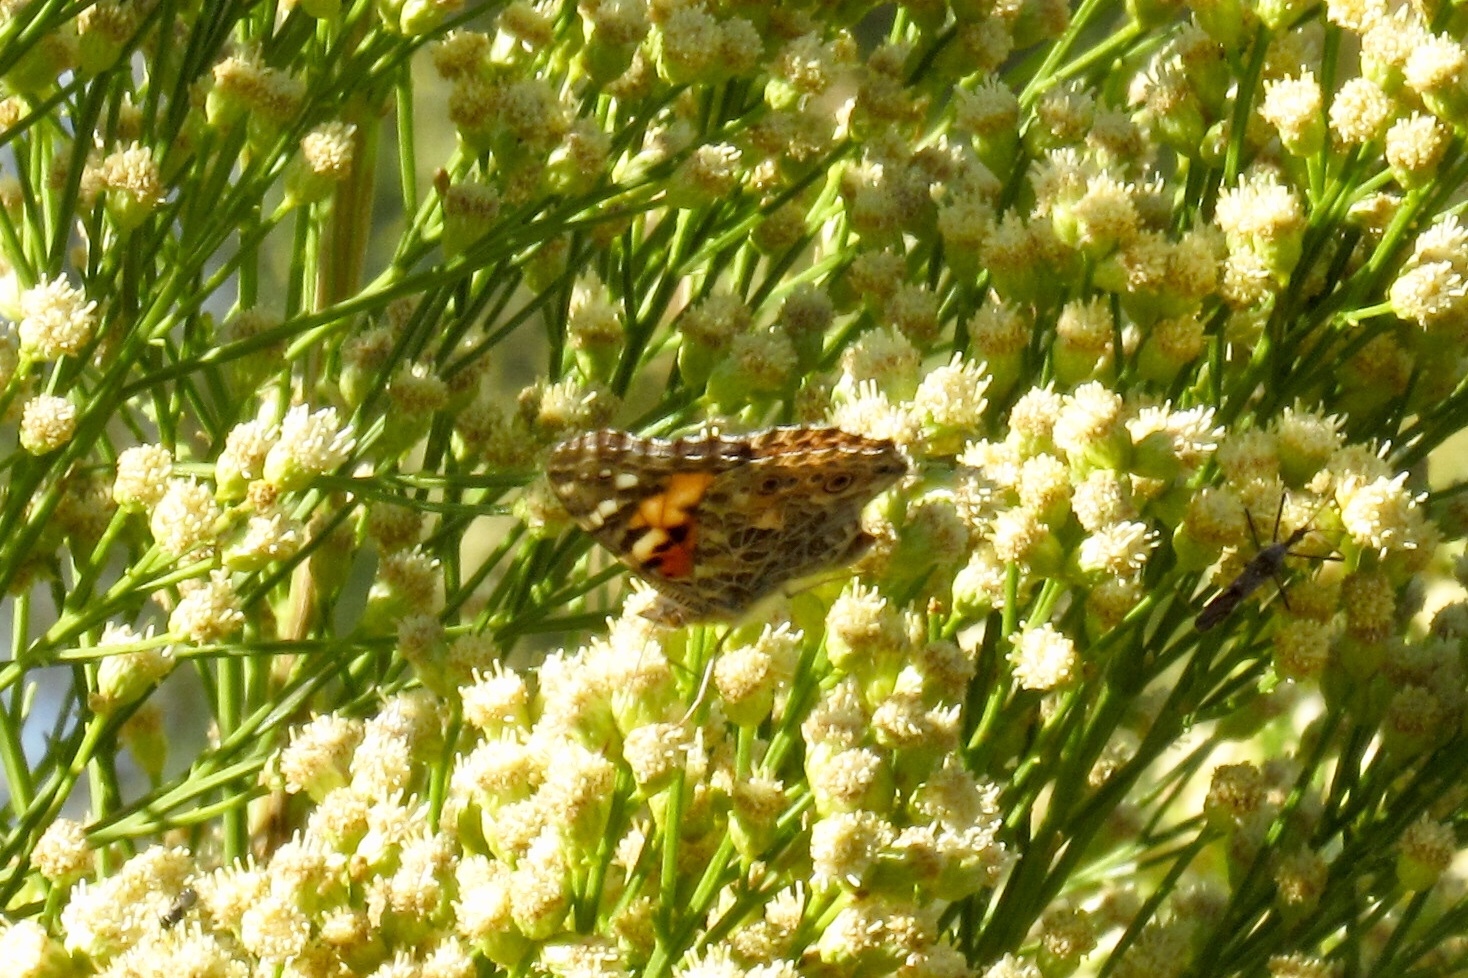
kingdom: Animalia
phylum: Arthropoda
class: Insecta
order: Lepidoptera
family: Nymphalidae
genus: Vanessa
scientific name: Vanessa cardui
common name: Painted lady
